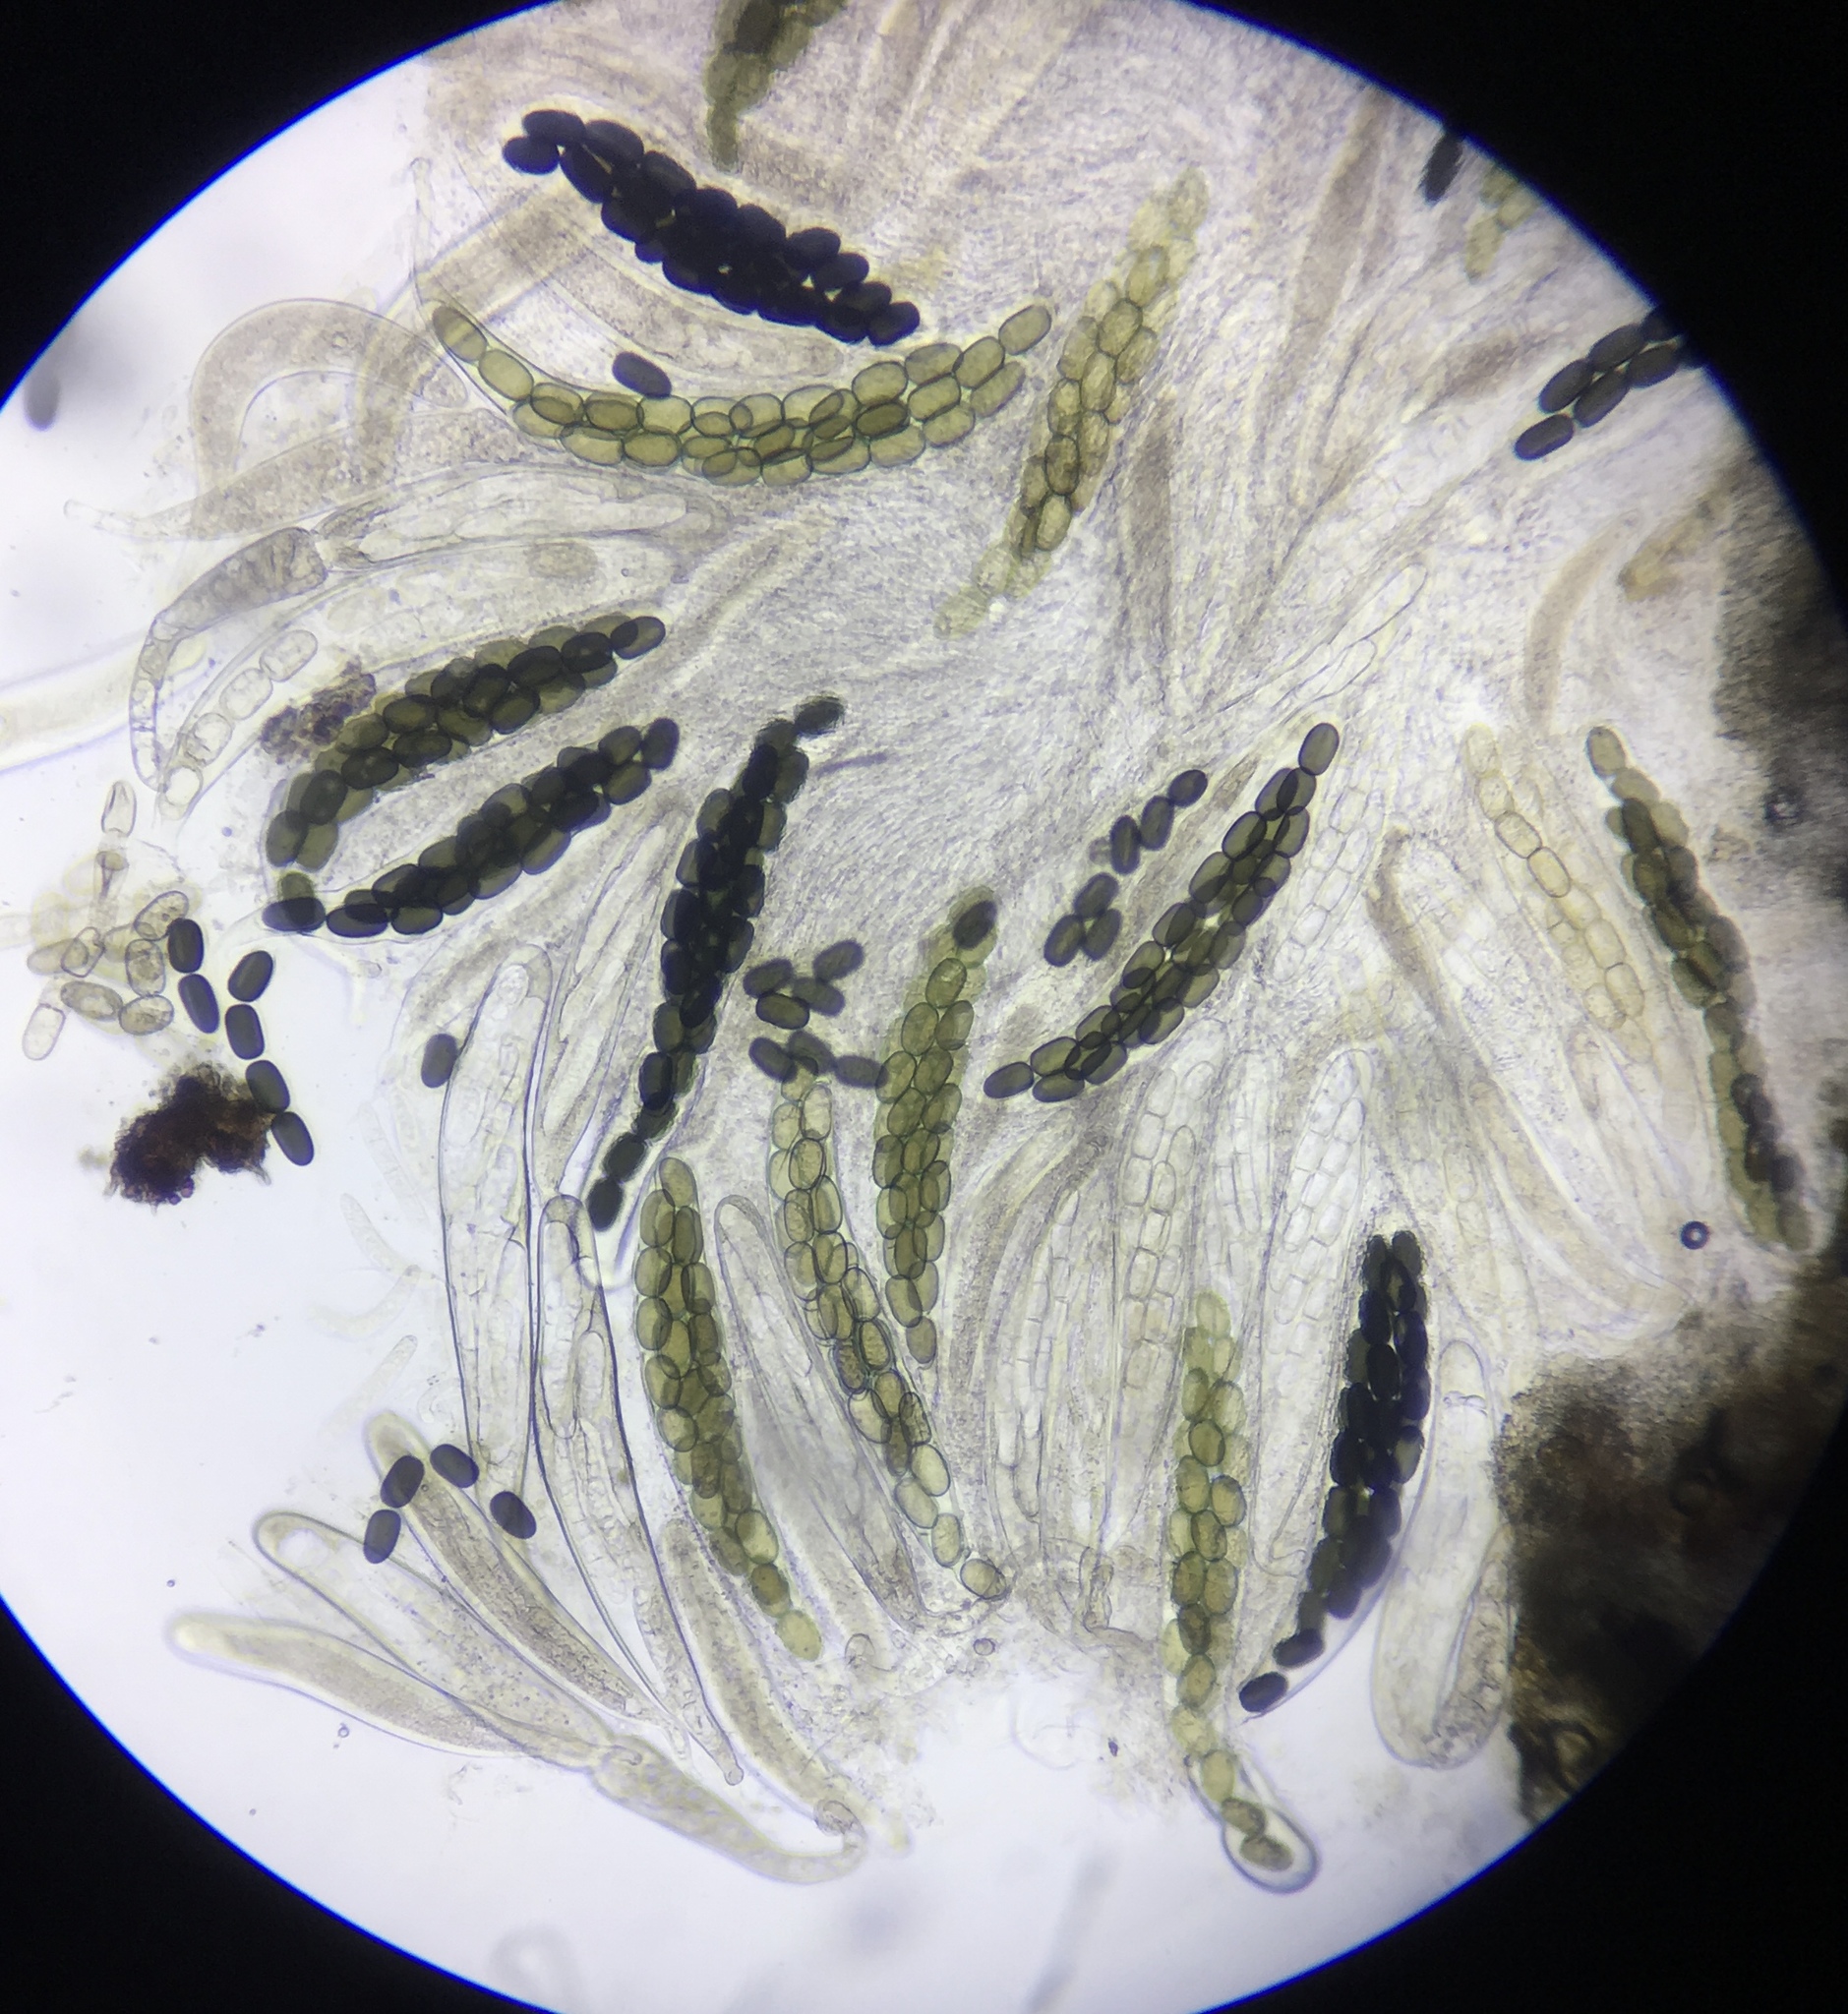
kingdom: Fungi
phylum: Ascomycota
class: Dothideomycetes
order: Pleosporales
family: Sporormiaceae
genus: Preussia
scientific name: Preussia longisporopsis
